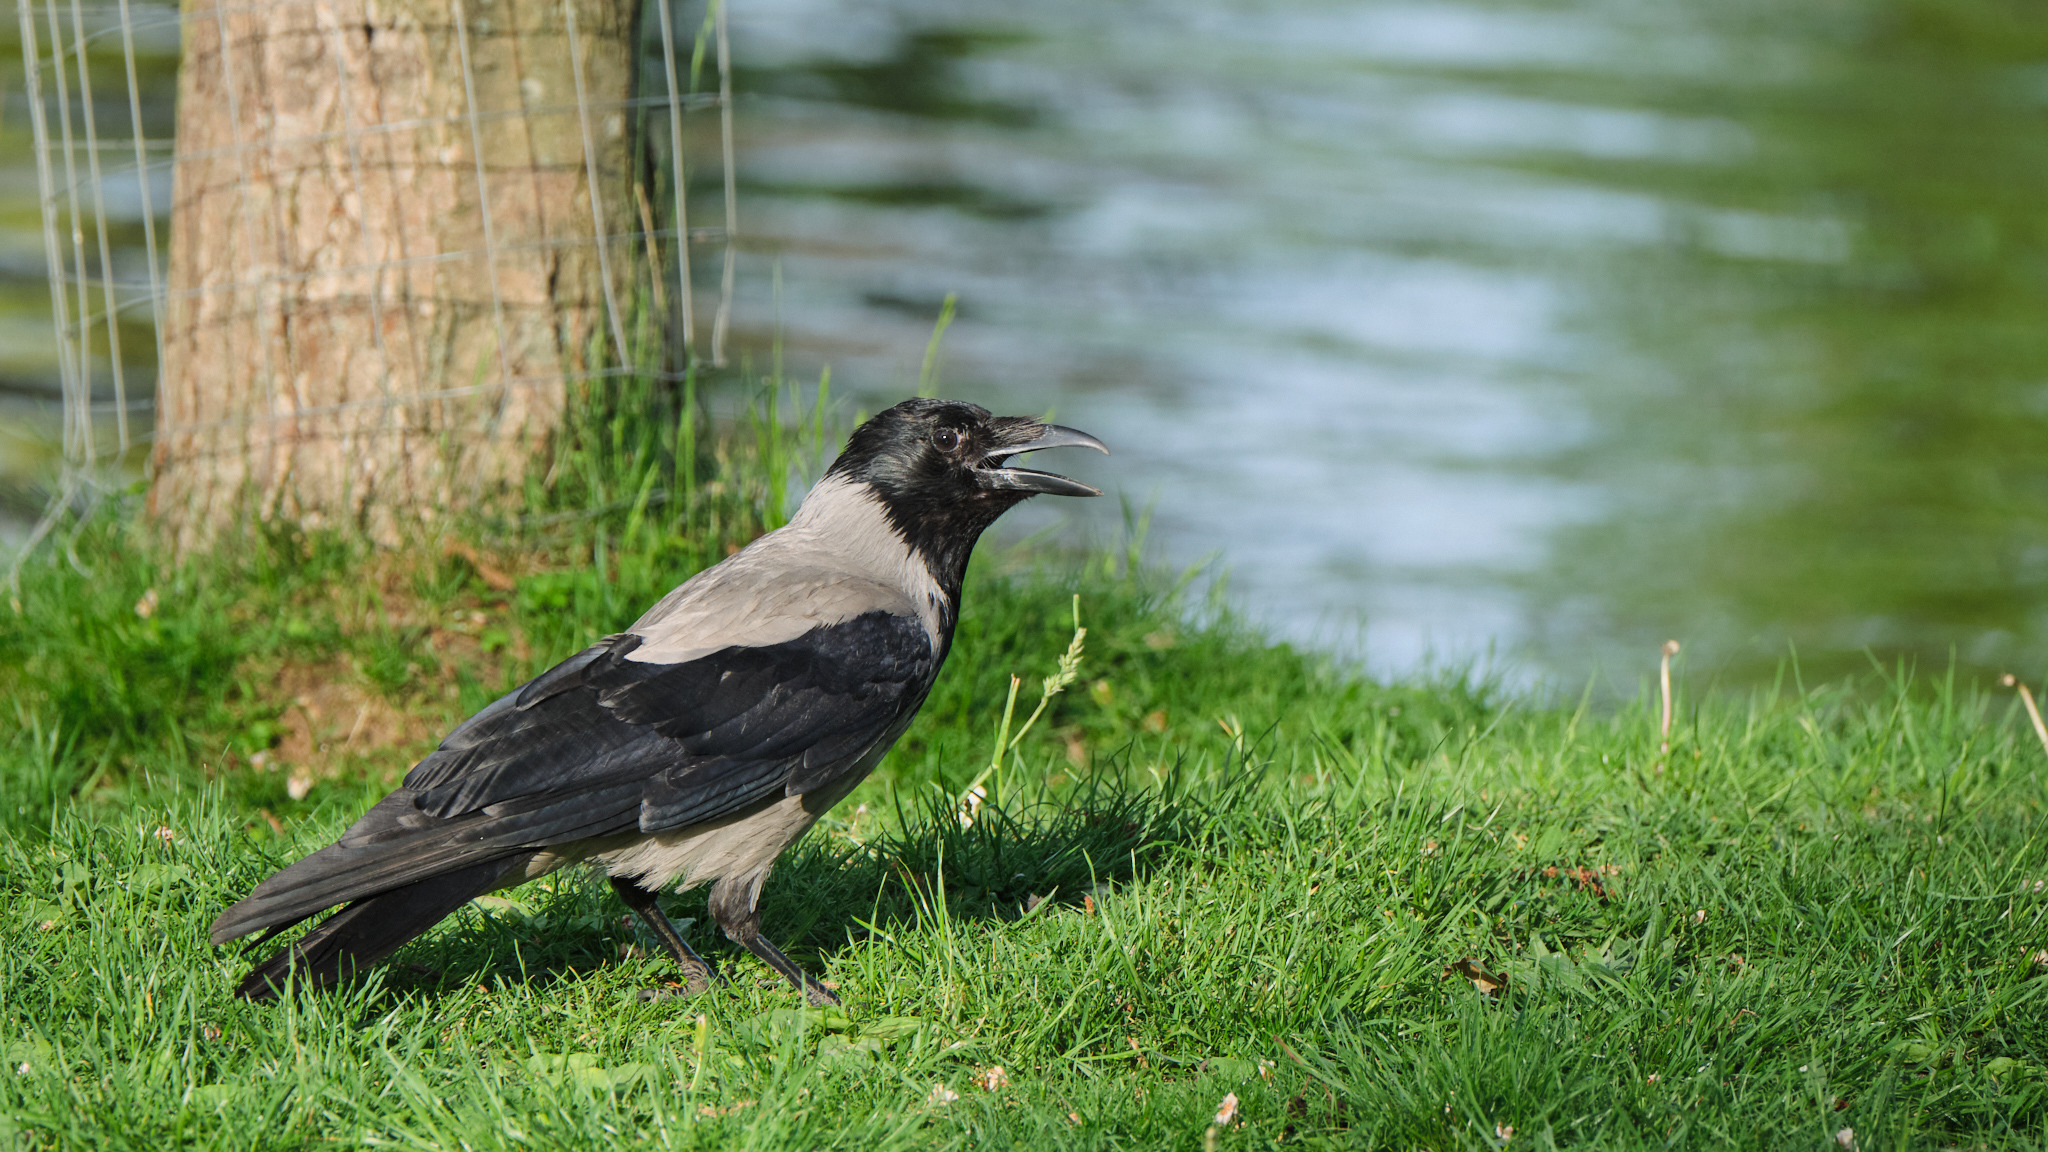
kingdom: Animalia
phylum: Chordata
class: Aves
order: Passeriformes
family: Corvidae
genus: Corvus
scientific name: Corvus cornix
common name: Hooded crow
